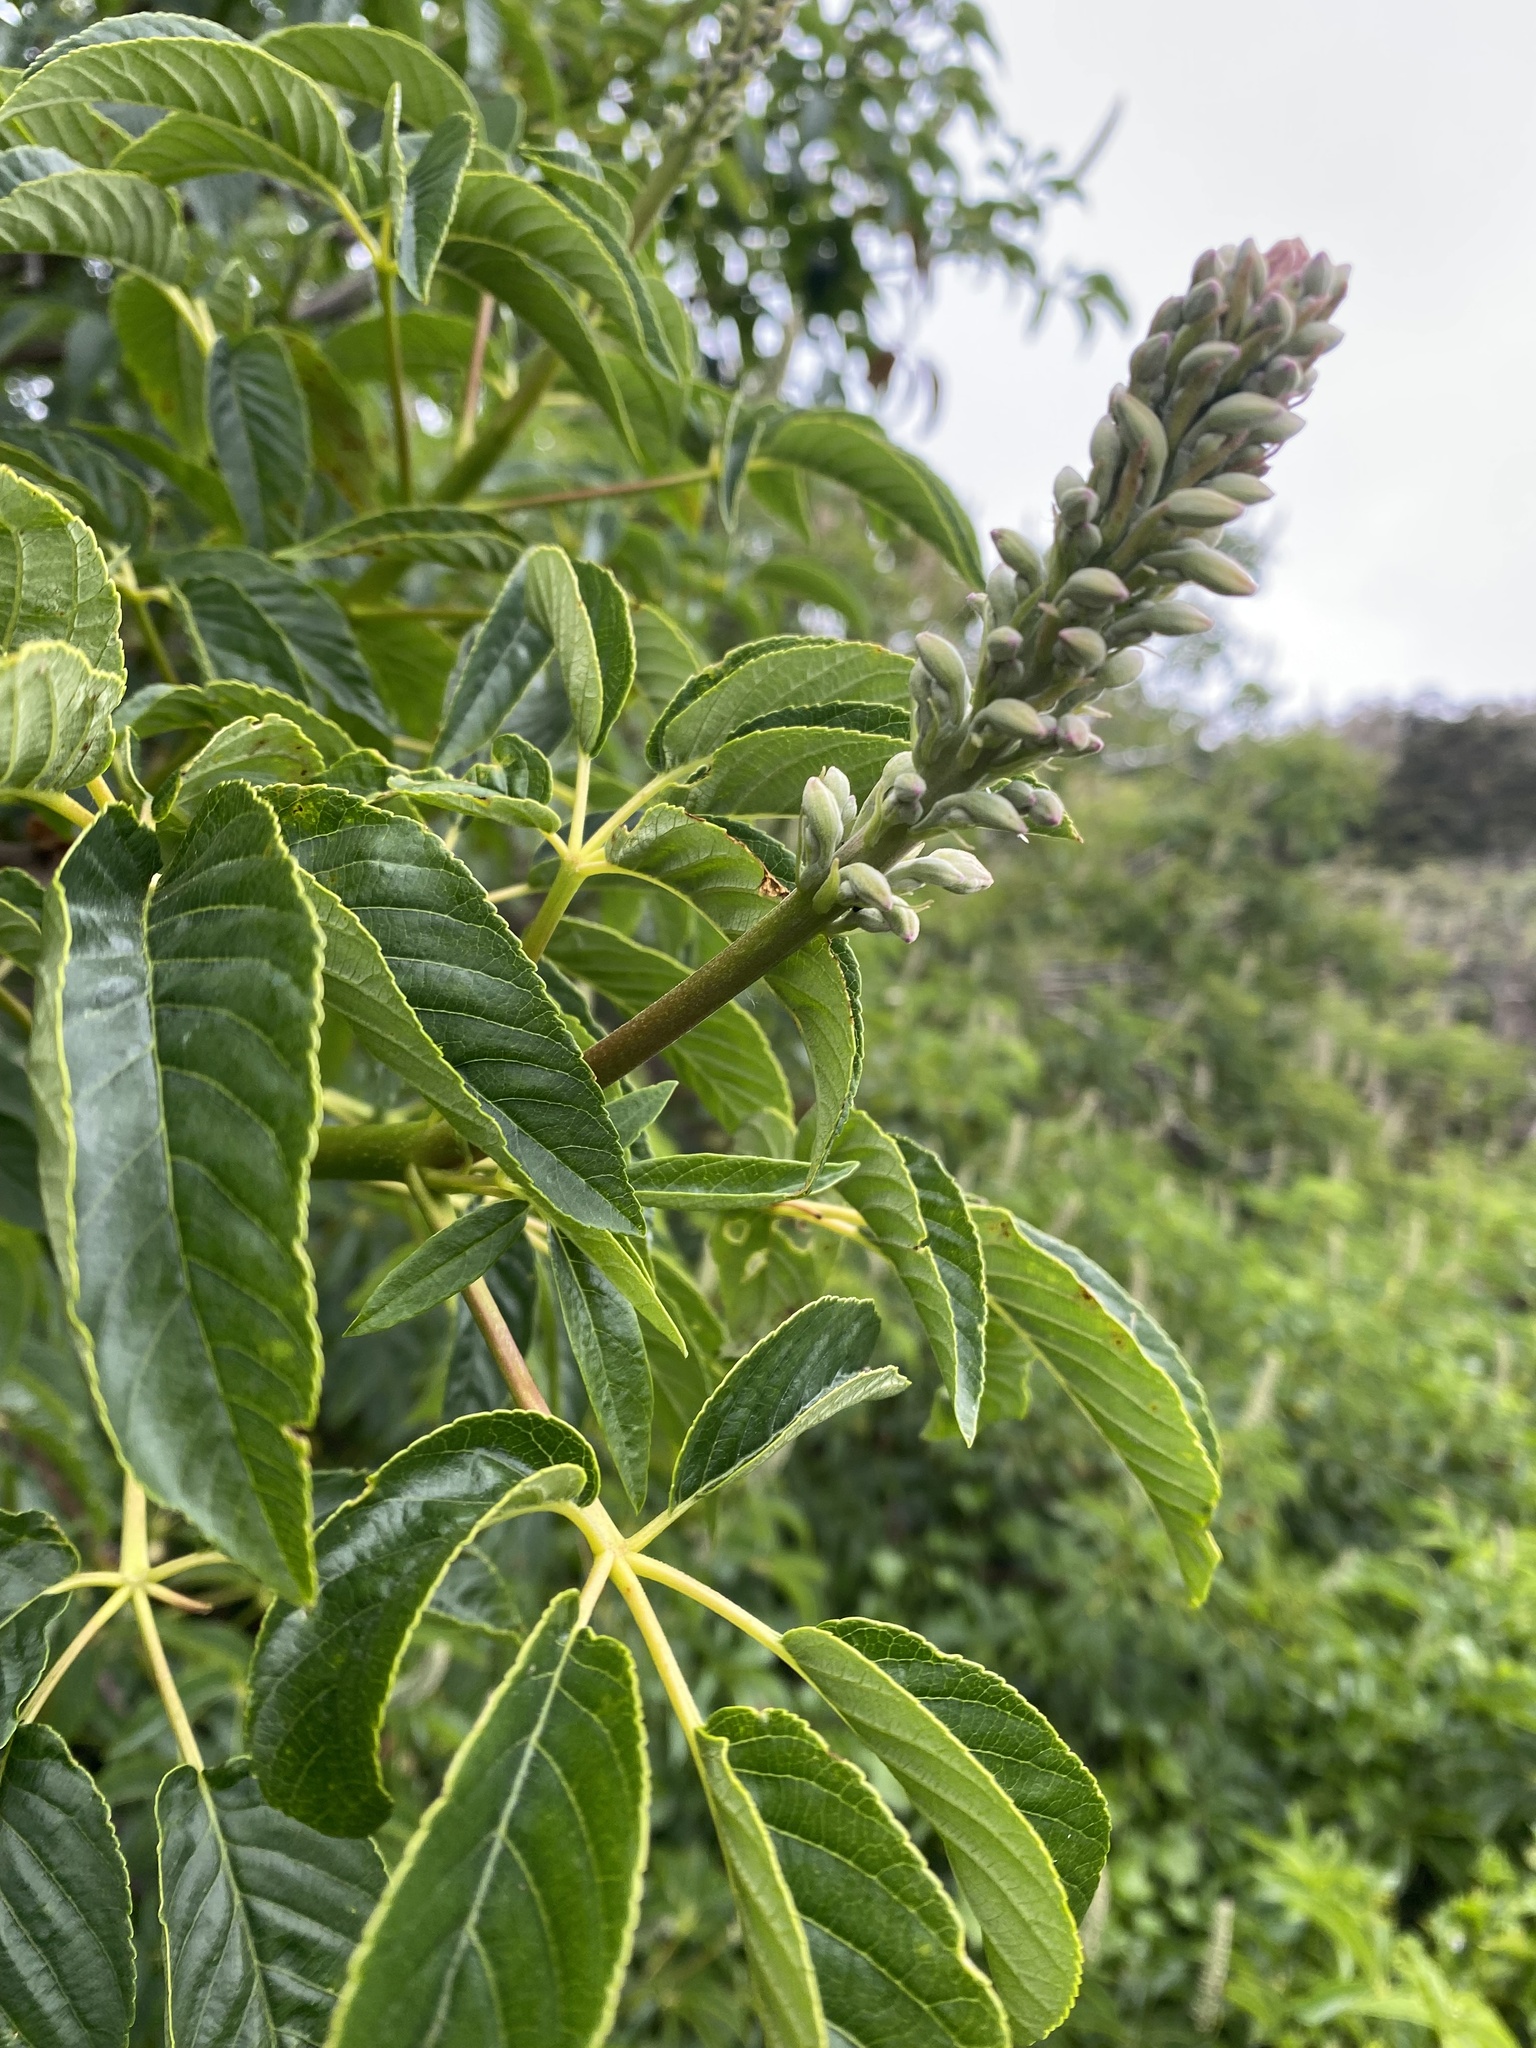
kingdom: Plantae
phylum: Tracheophyta
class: Magnoliopsida
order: Sapindales
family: Sapindaceae
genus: Aesculus
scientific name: Aesculus californica
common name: California buckeye
